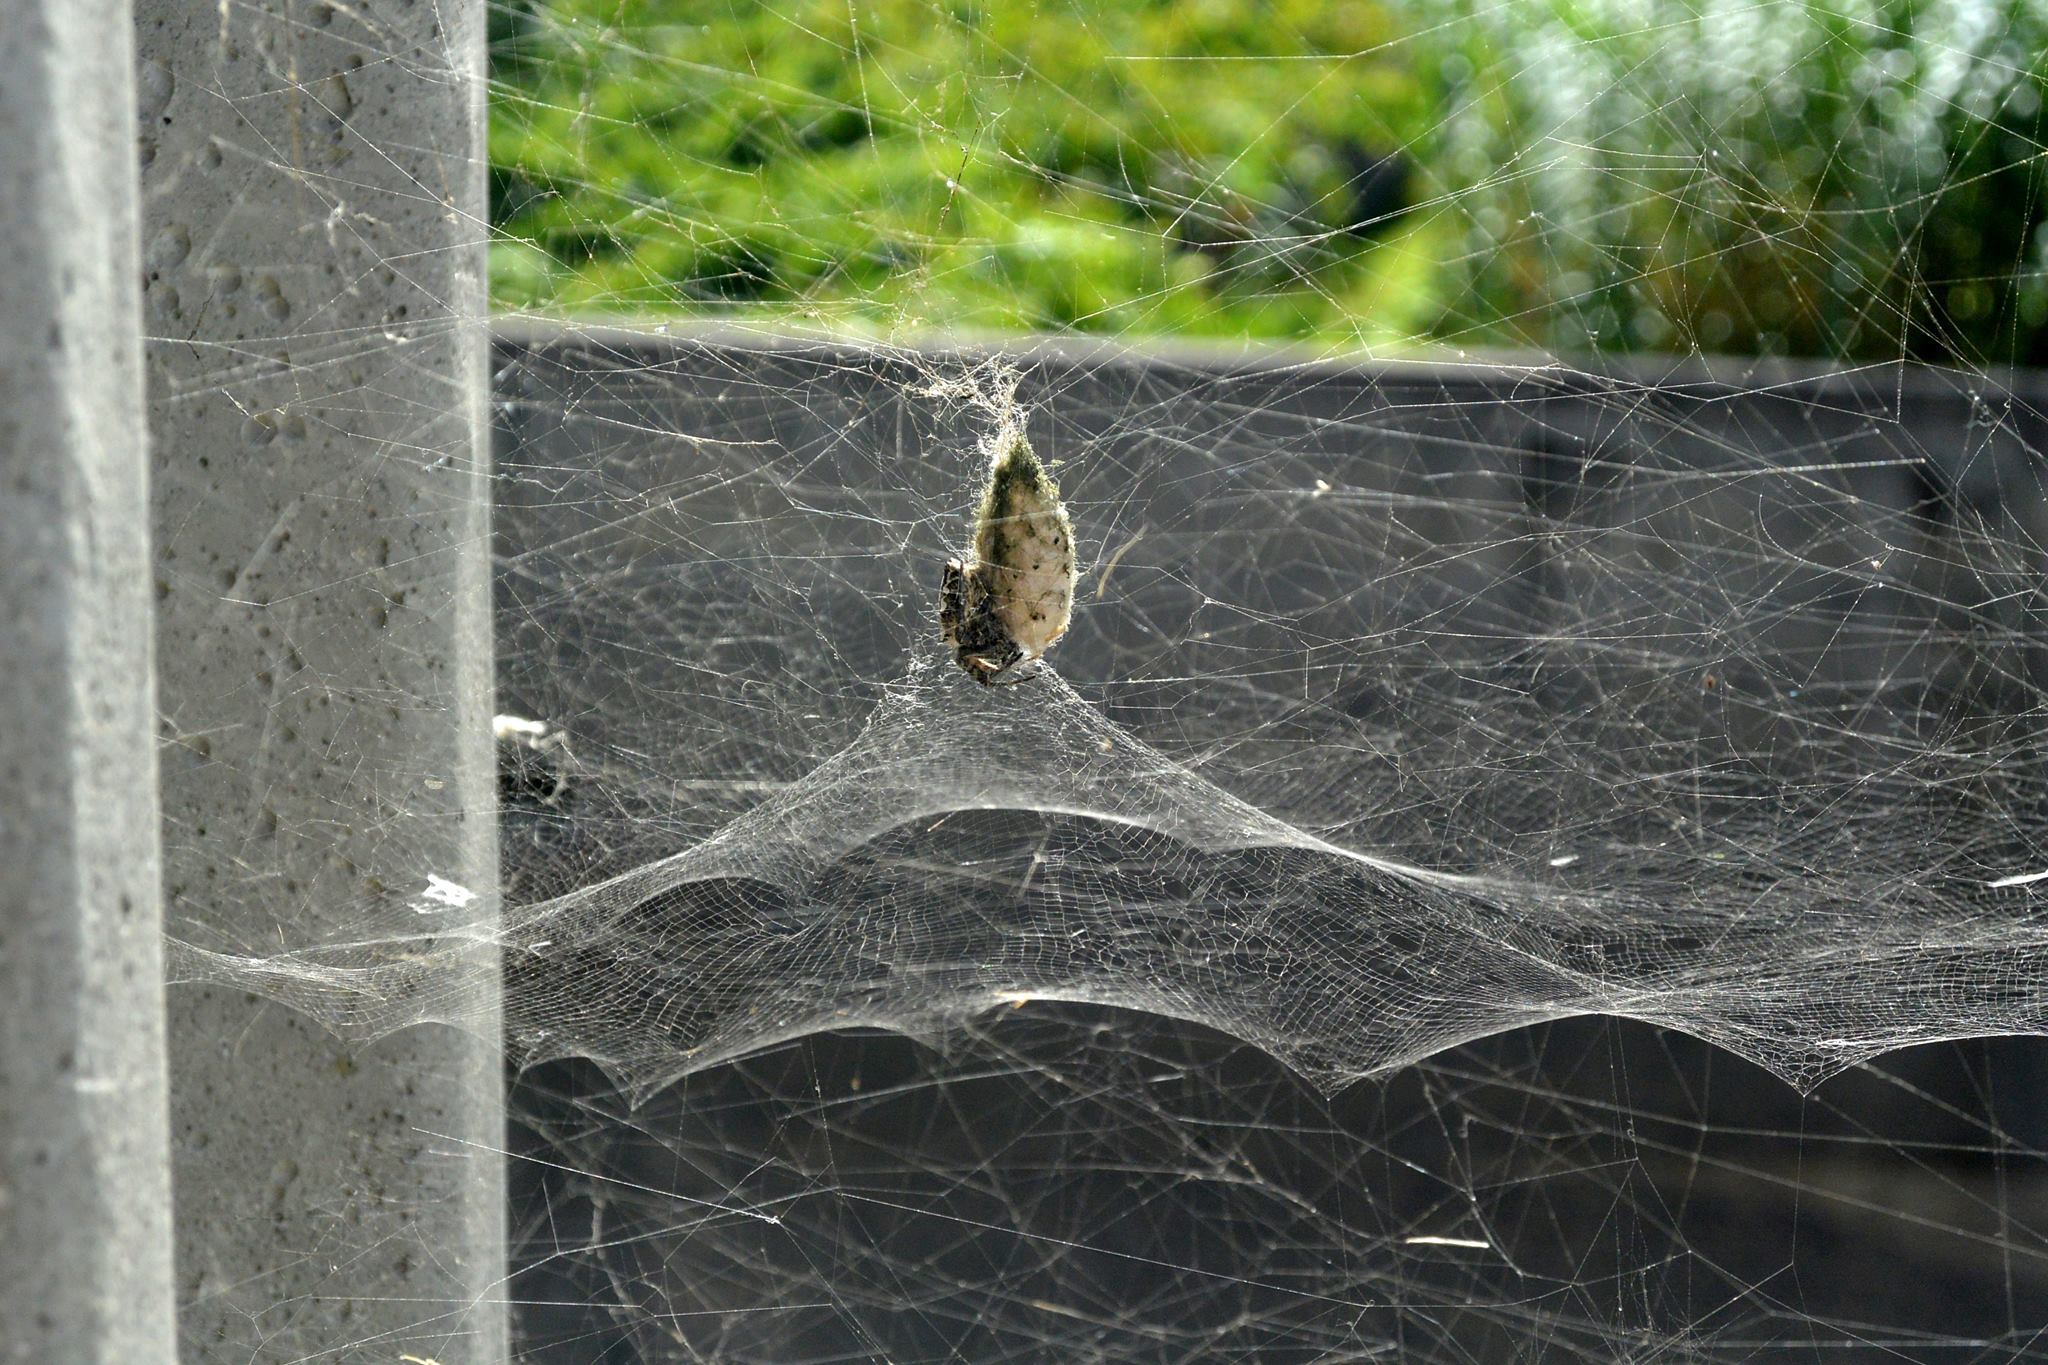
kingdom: Animalia
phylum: Arthropoda
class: Arachnida
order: Araneae
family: Araneidae
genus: Cyrtophora
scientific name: Cyrtophora citricola
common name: Orb weavers
